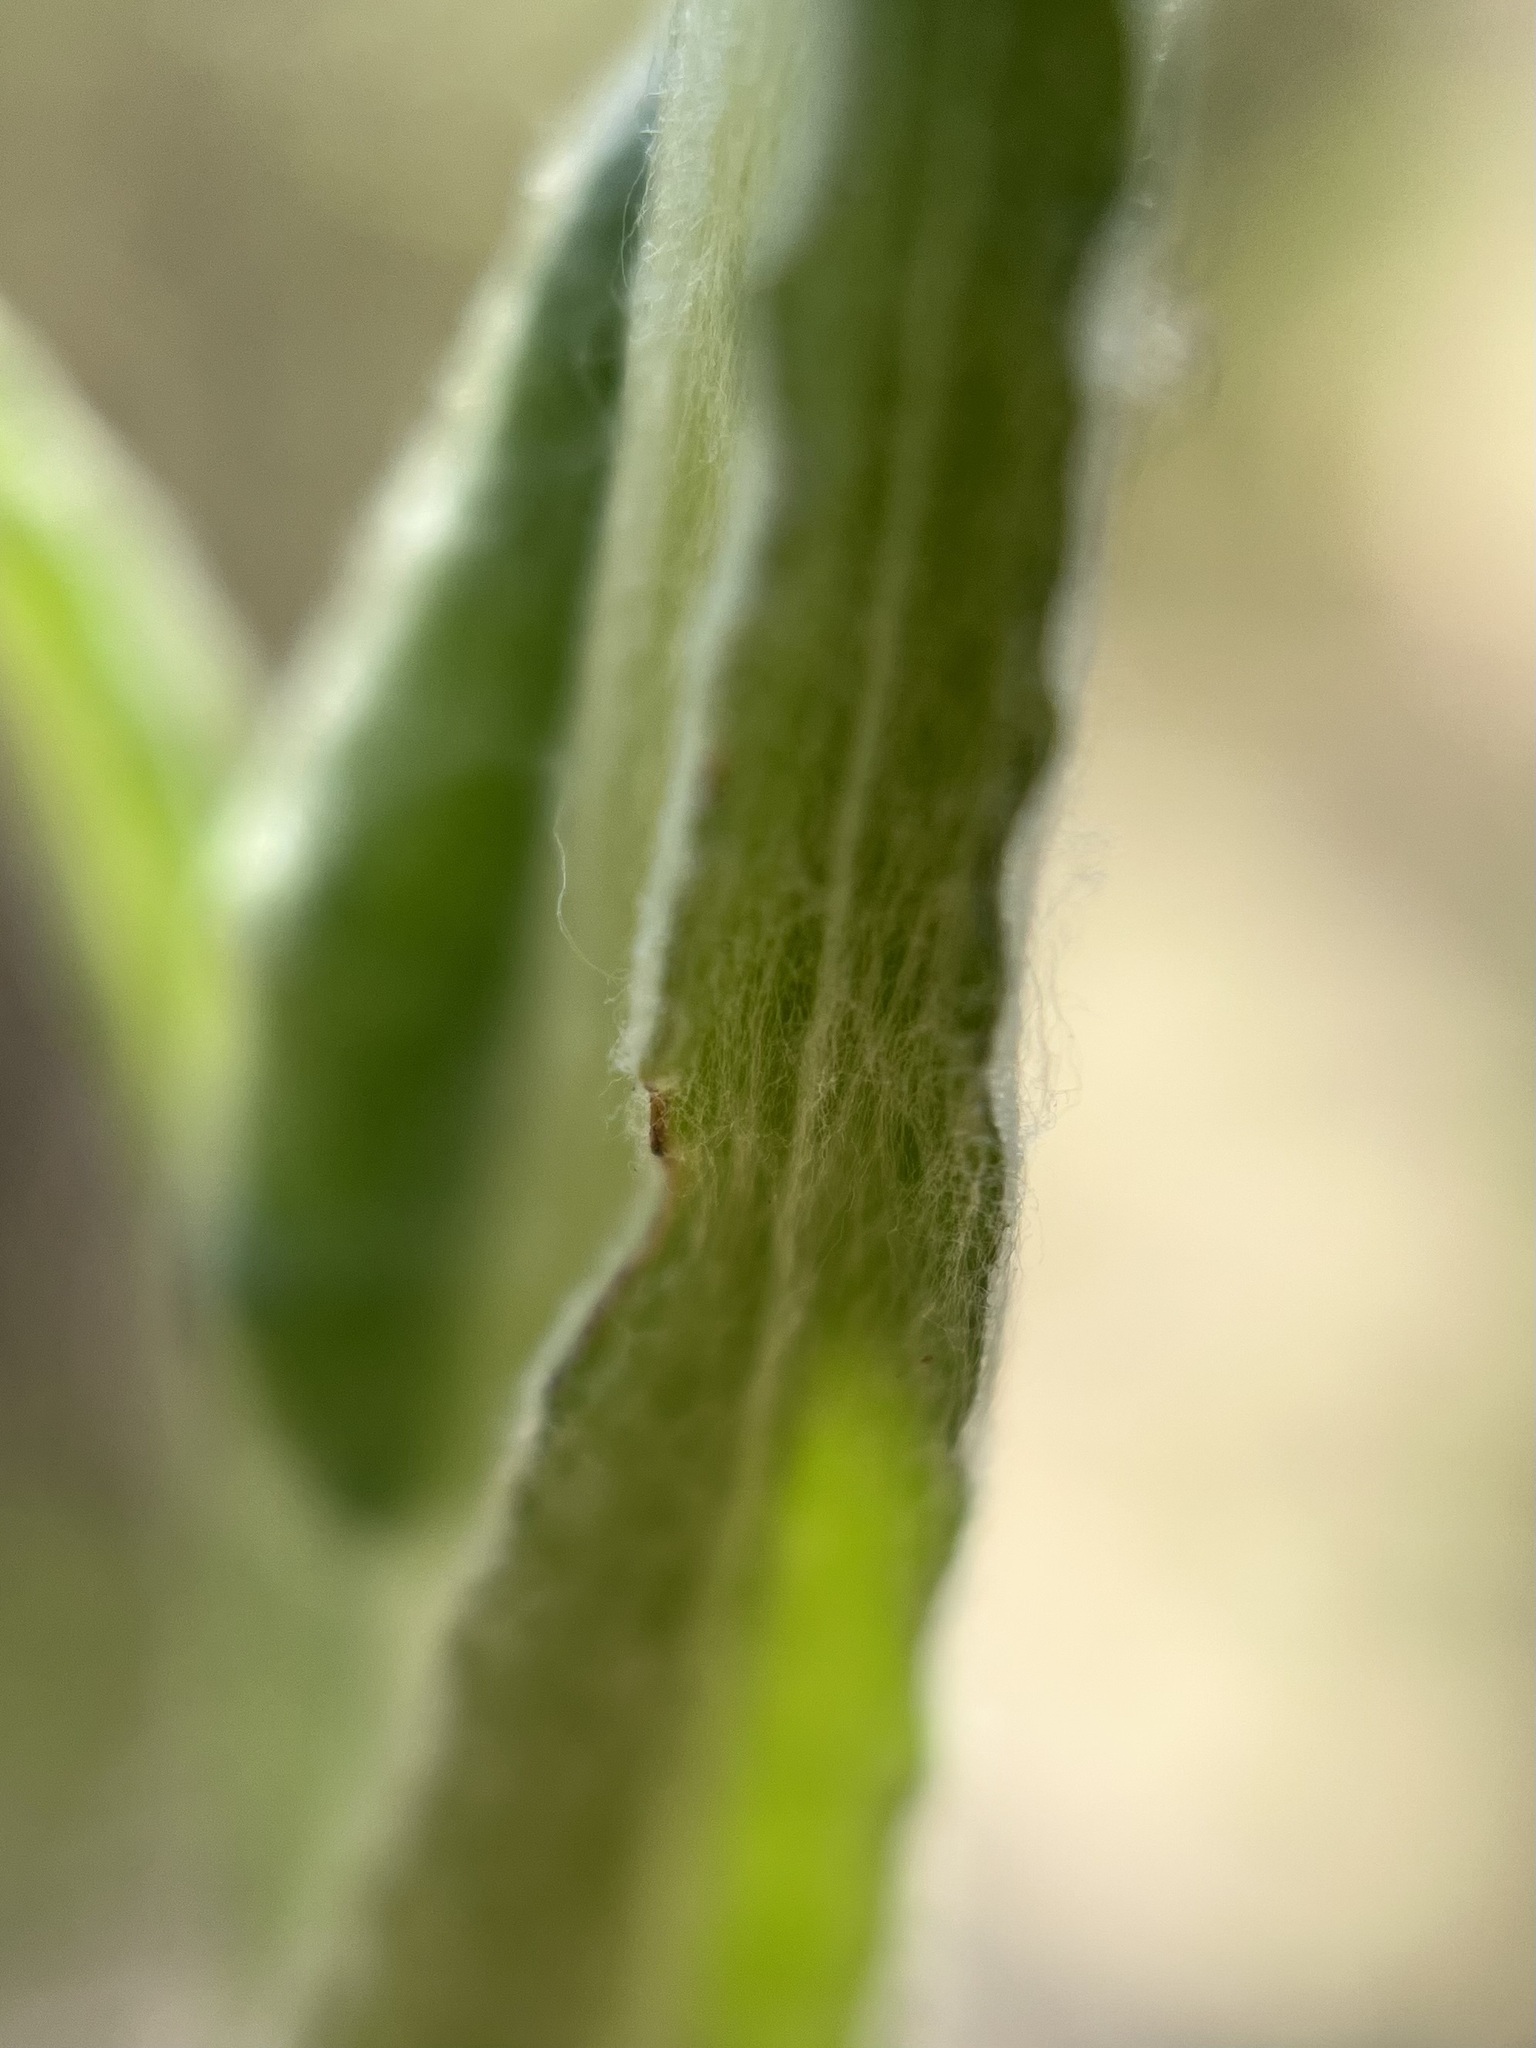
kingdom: Plantae
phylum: Tracheophyta
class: Magnoliopsida
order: Asterales
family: Asteraceae
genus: Pseudognaphalium
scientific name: Pseudognaphalium stramineum
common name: Cotton-batting-plant
